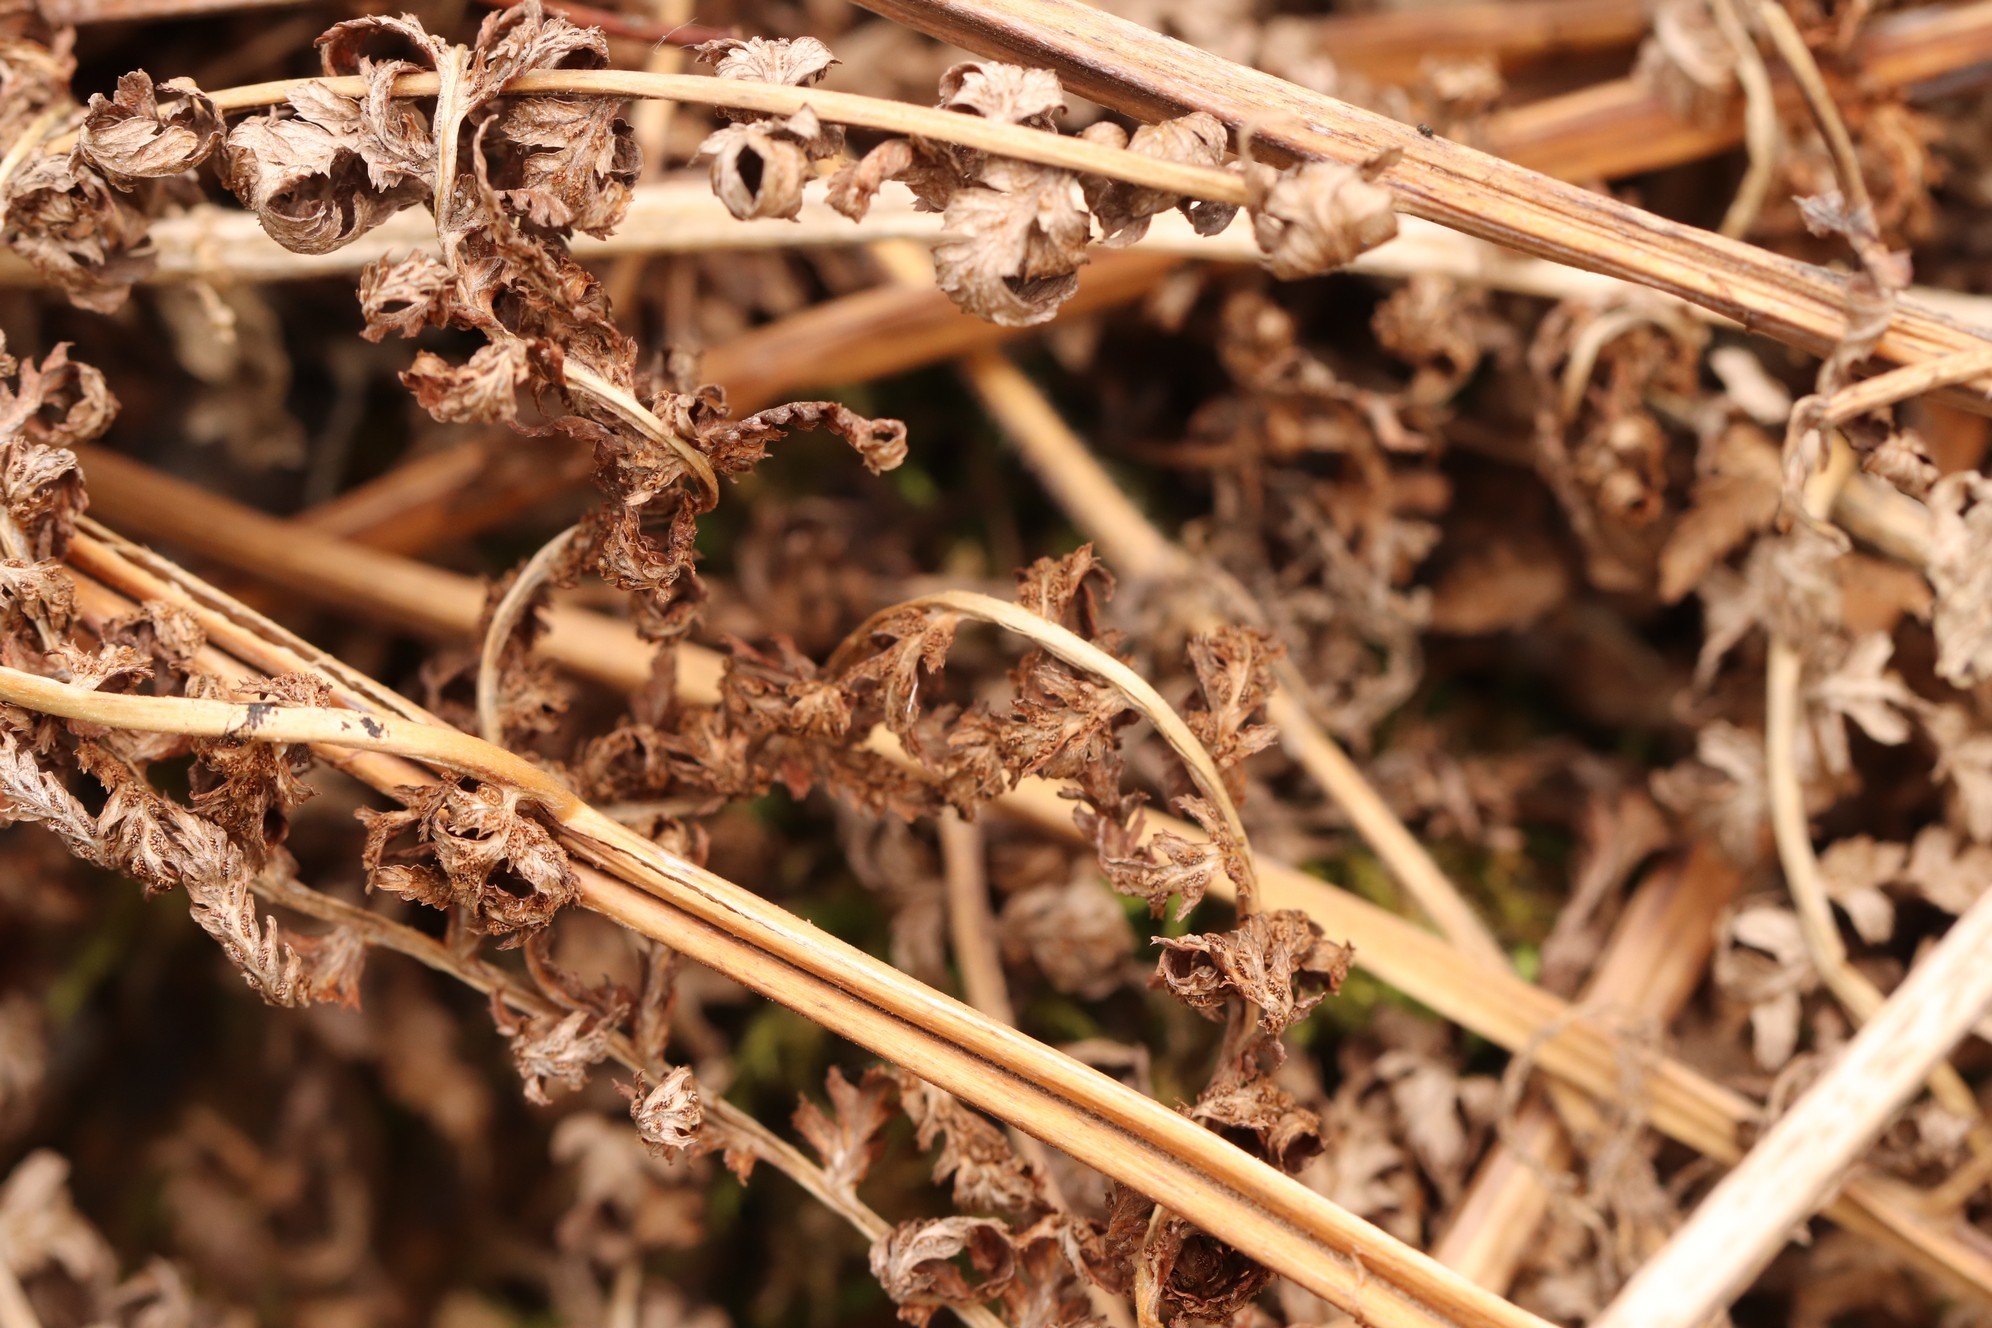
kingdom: Plantae
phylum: Tracheophyta
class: Polypodiopsida
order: Polypodiales
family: Athyriaceae
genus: Athyrium
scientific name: Athyrium filix-femina
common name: Lady fern
